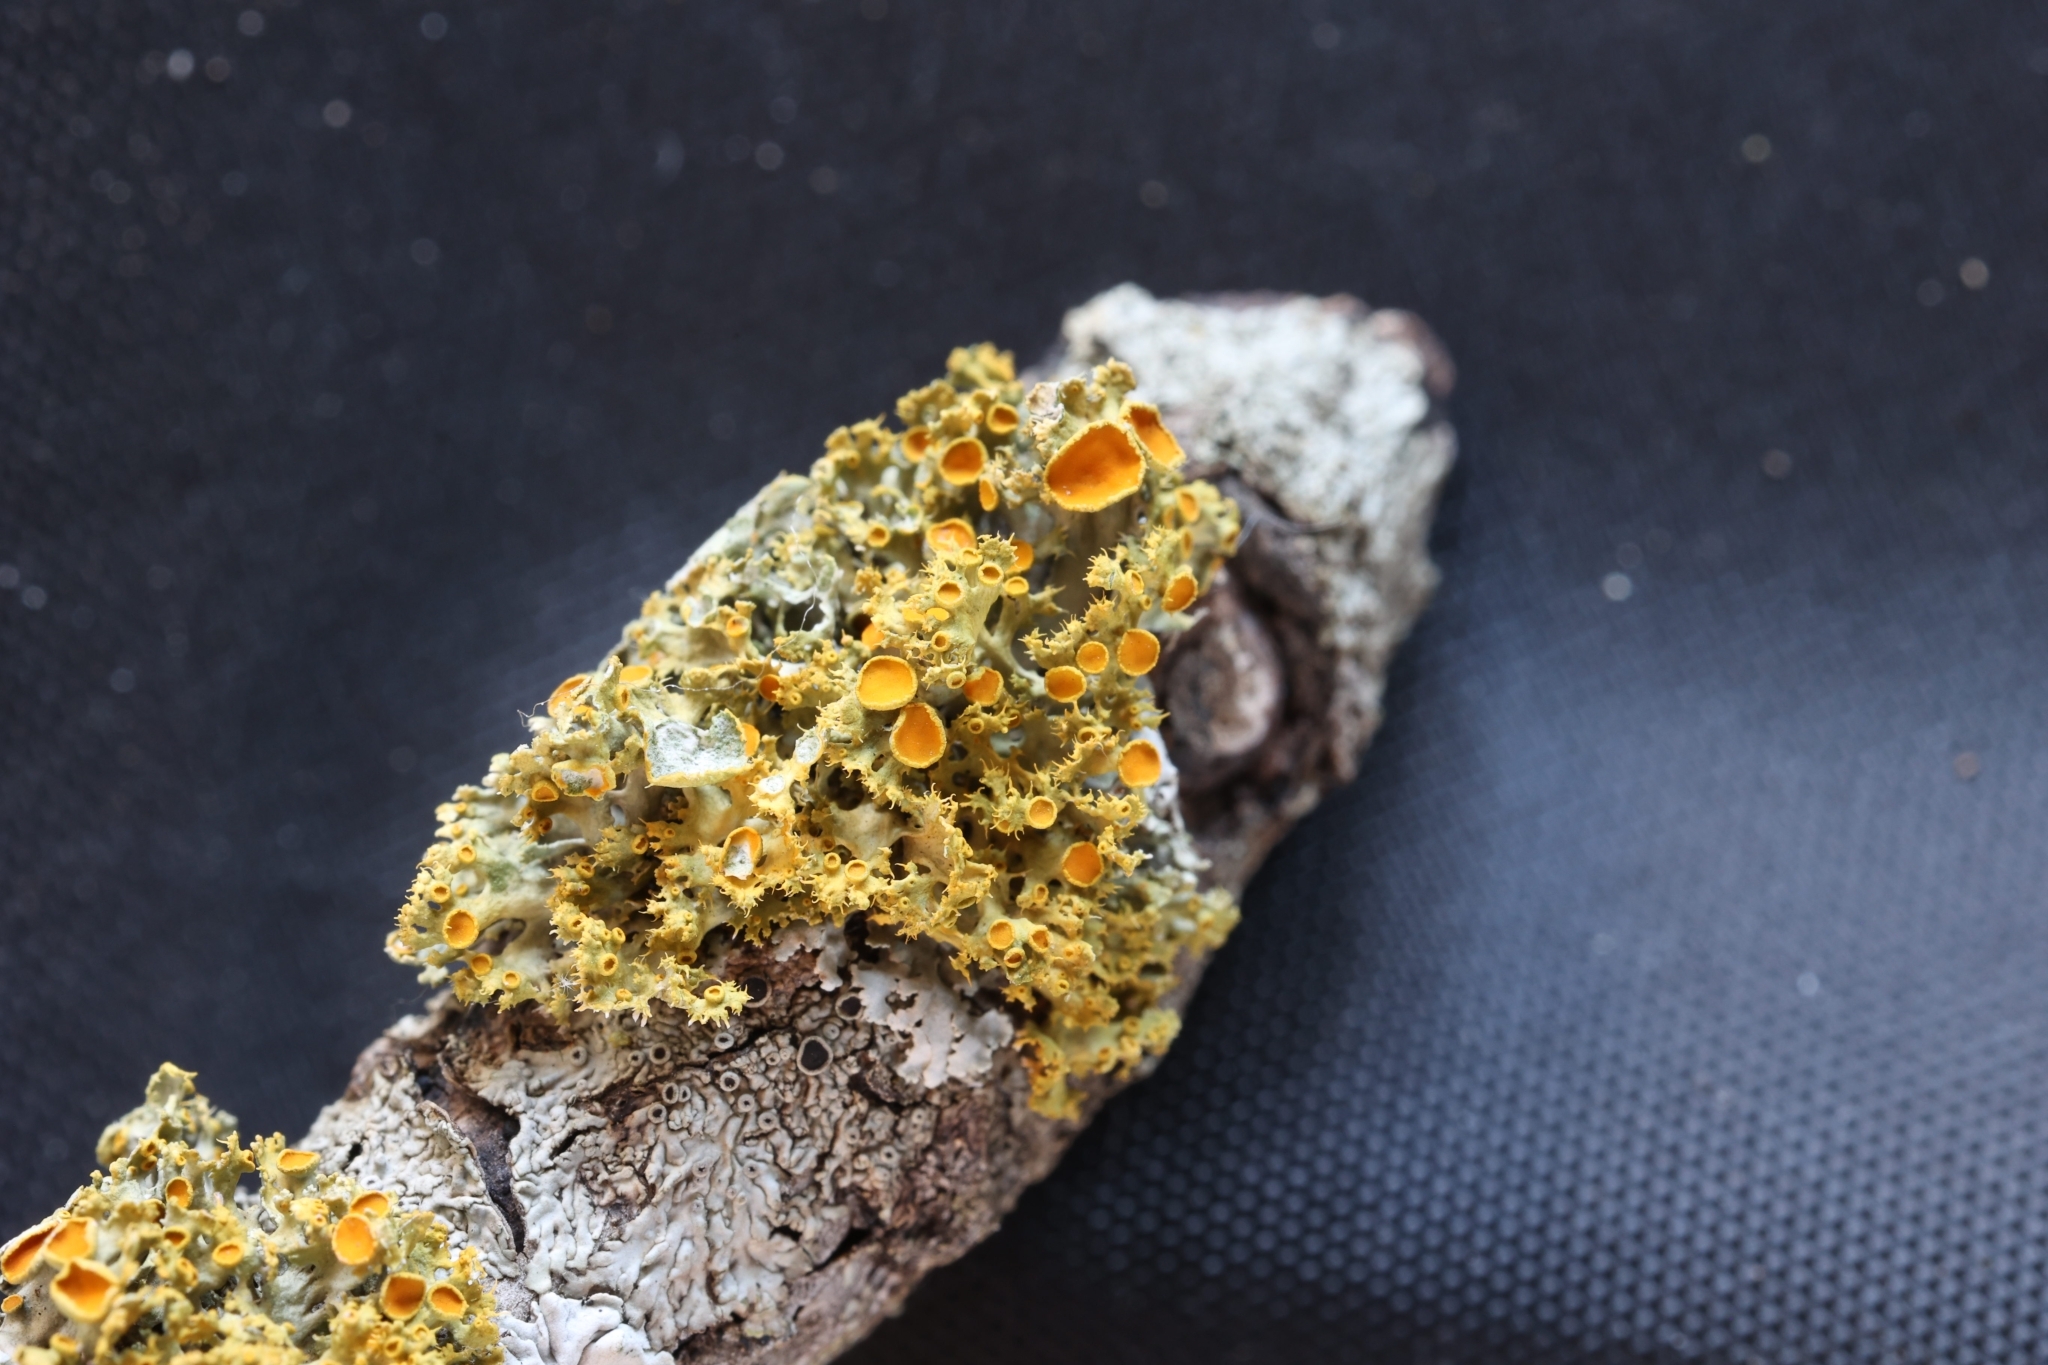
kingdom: Fungi
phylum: Ascomycota
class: Lecanoromycetes
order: Teloschistales
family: Teloschistaceae
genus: Niorma
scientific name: Niorma chrysophthalma
